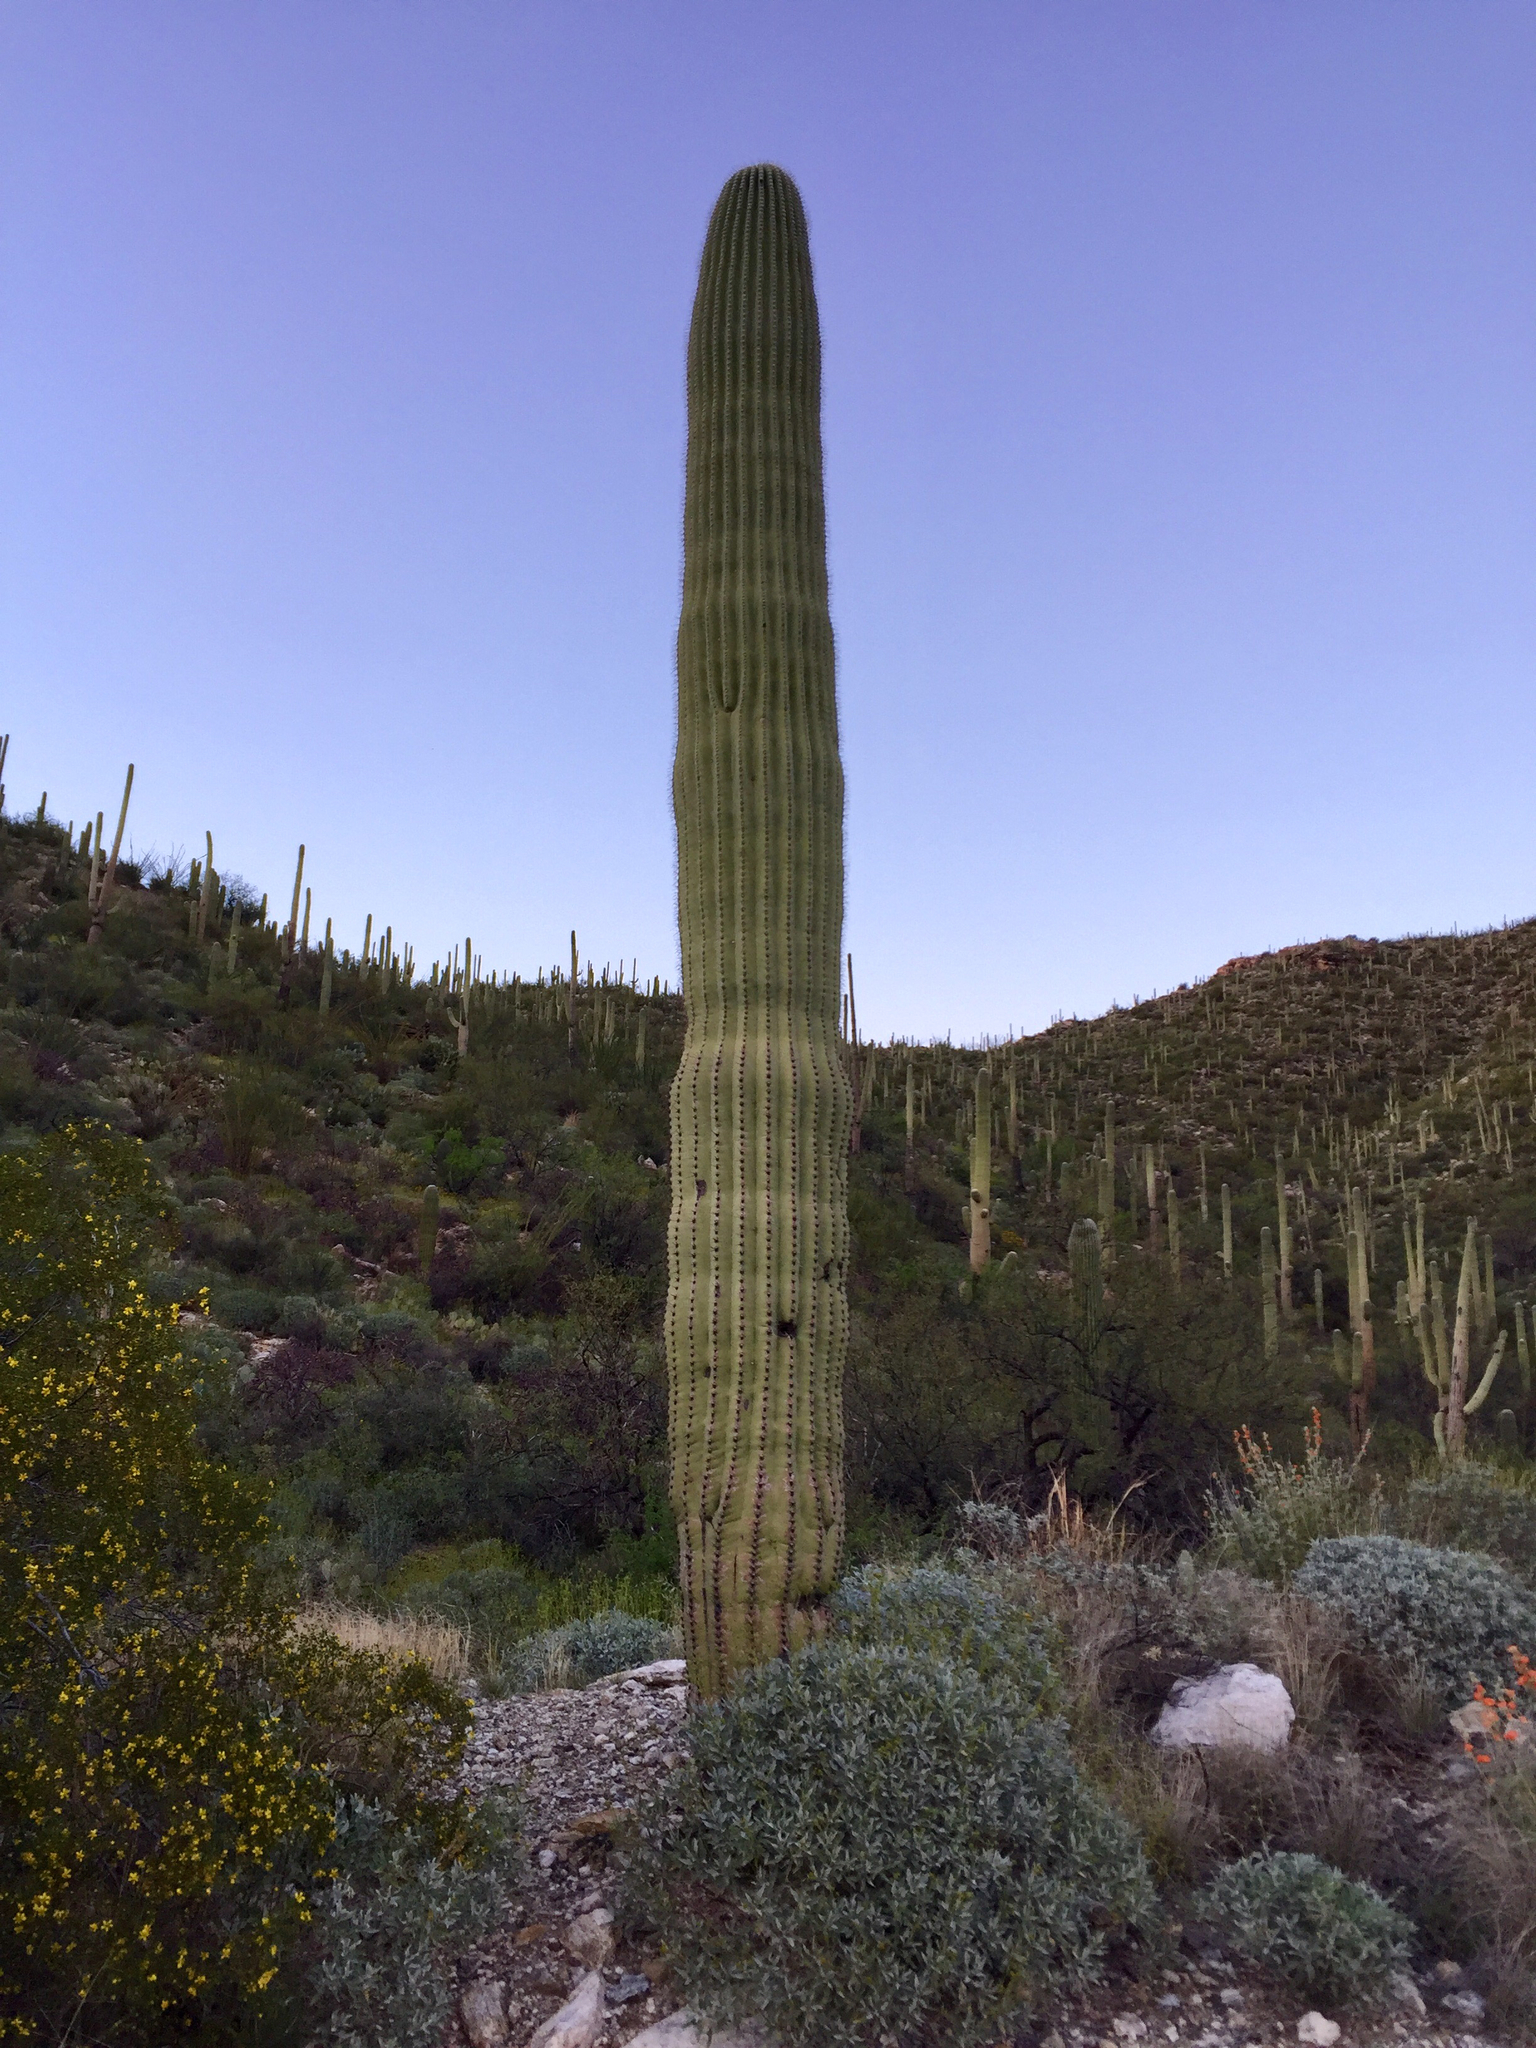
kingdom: Plantae
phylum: Tracheophyta
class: Magnoliopsida
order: Caryophyllales
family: Cactaceae
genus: Carnegiea
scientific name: Carnegiea gigantea
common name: Saguaro
